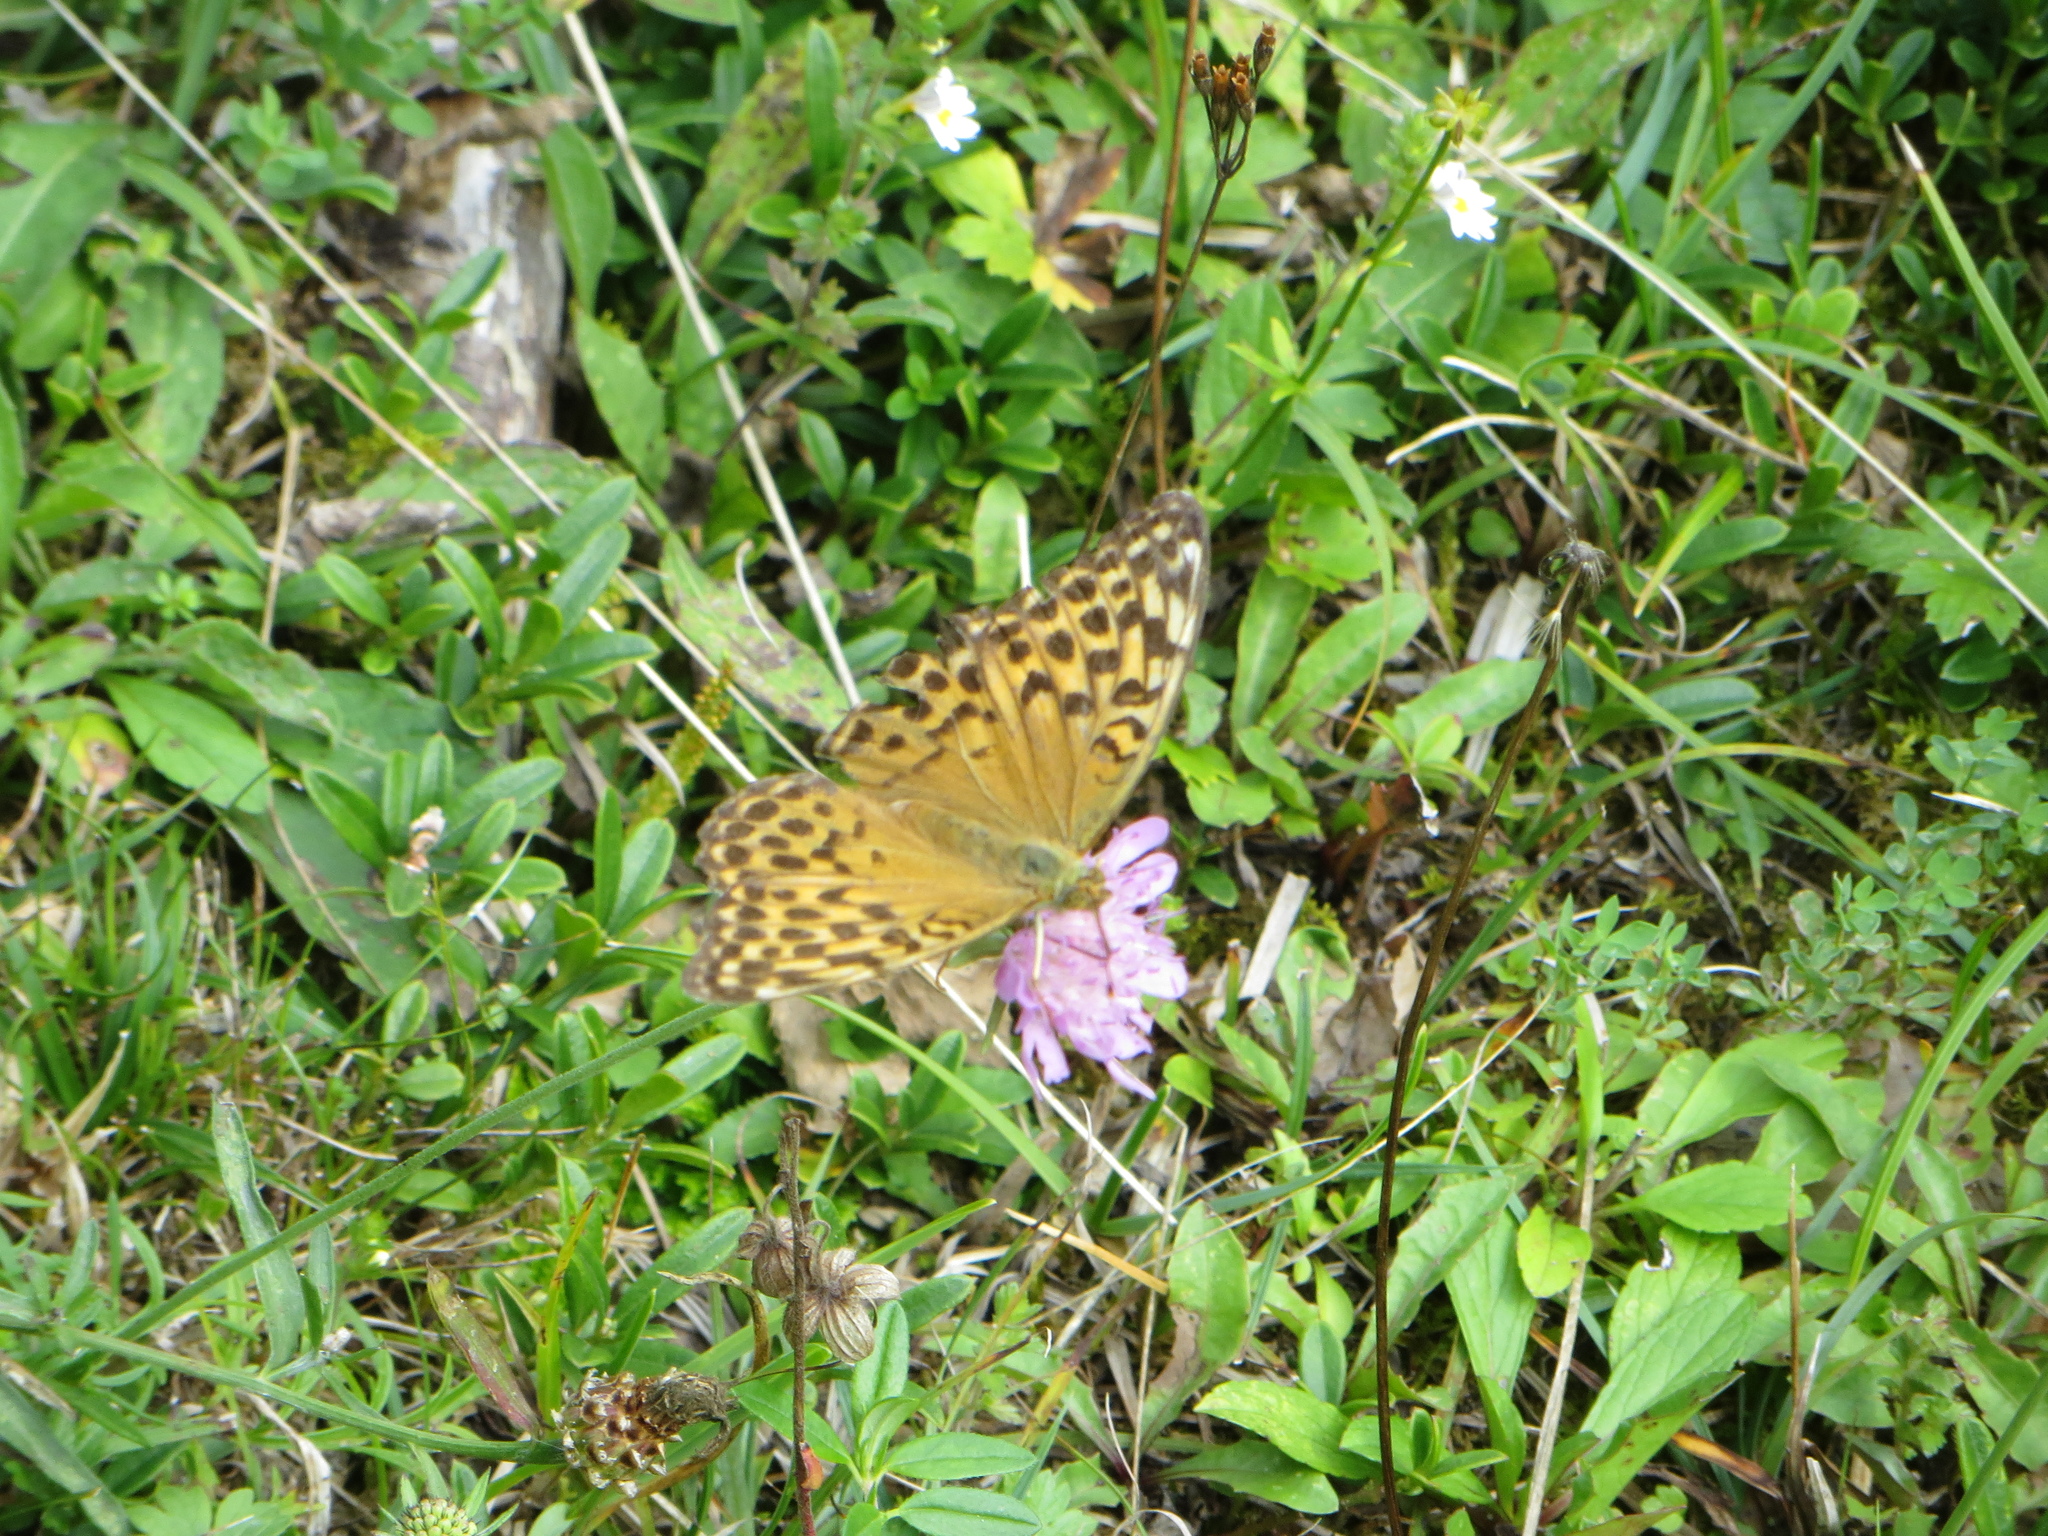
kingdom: Animalia
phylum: Arthropoda
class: Insecta
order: Lepidoptera
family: Nymphalidae
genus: Argynnis
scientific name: Argynnis paphia
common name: Silver-washed fritillary
